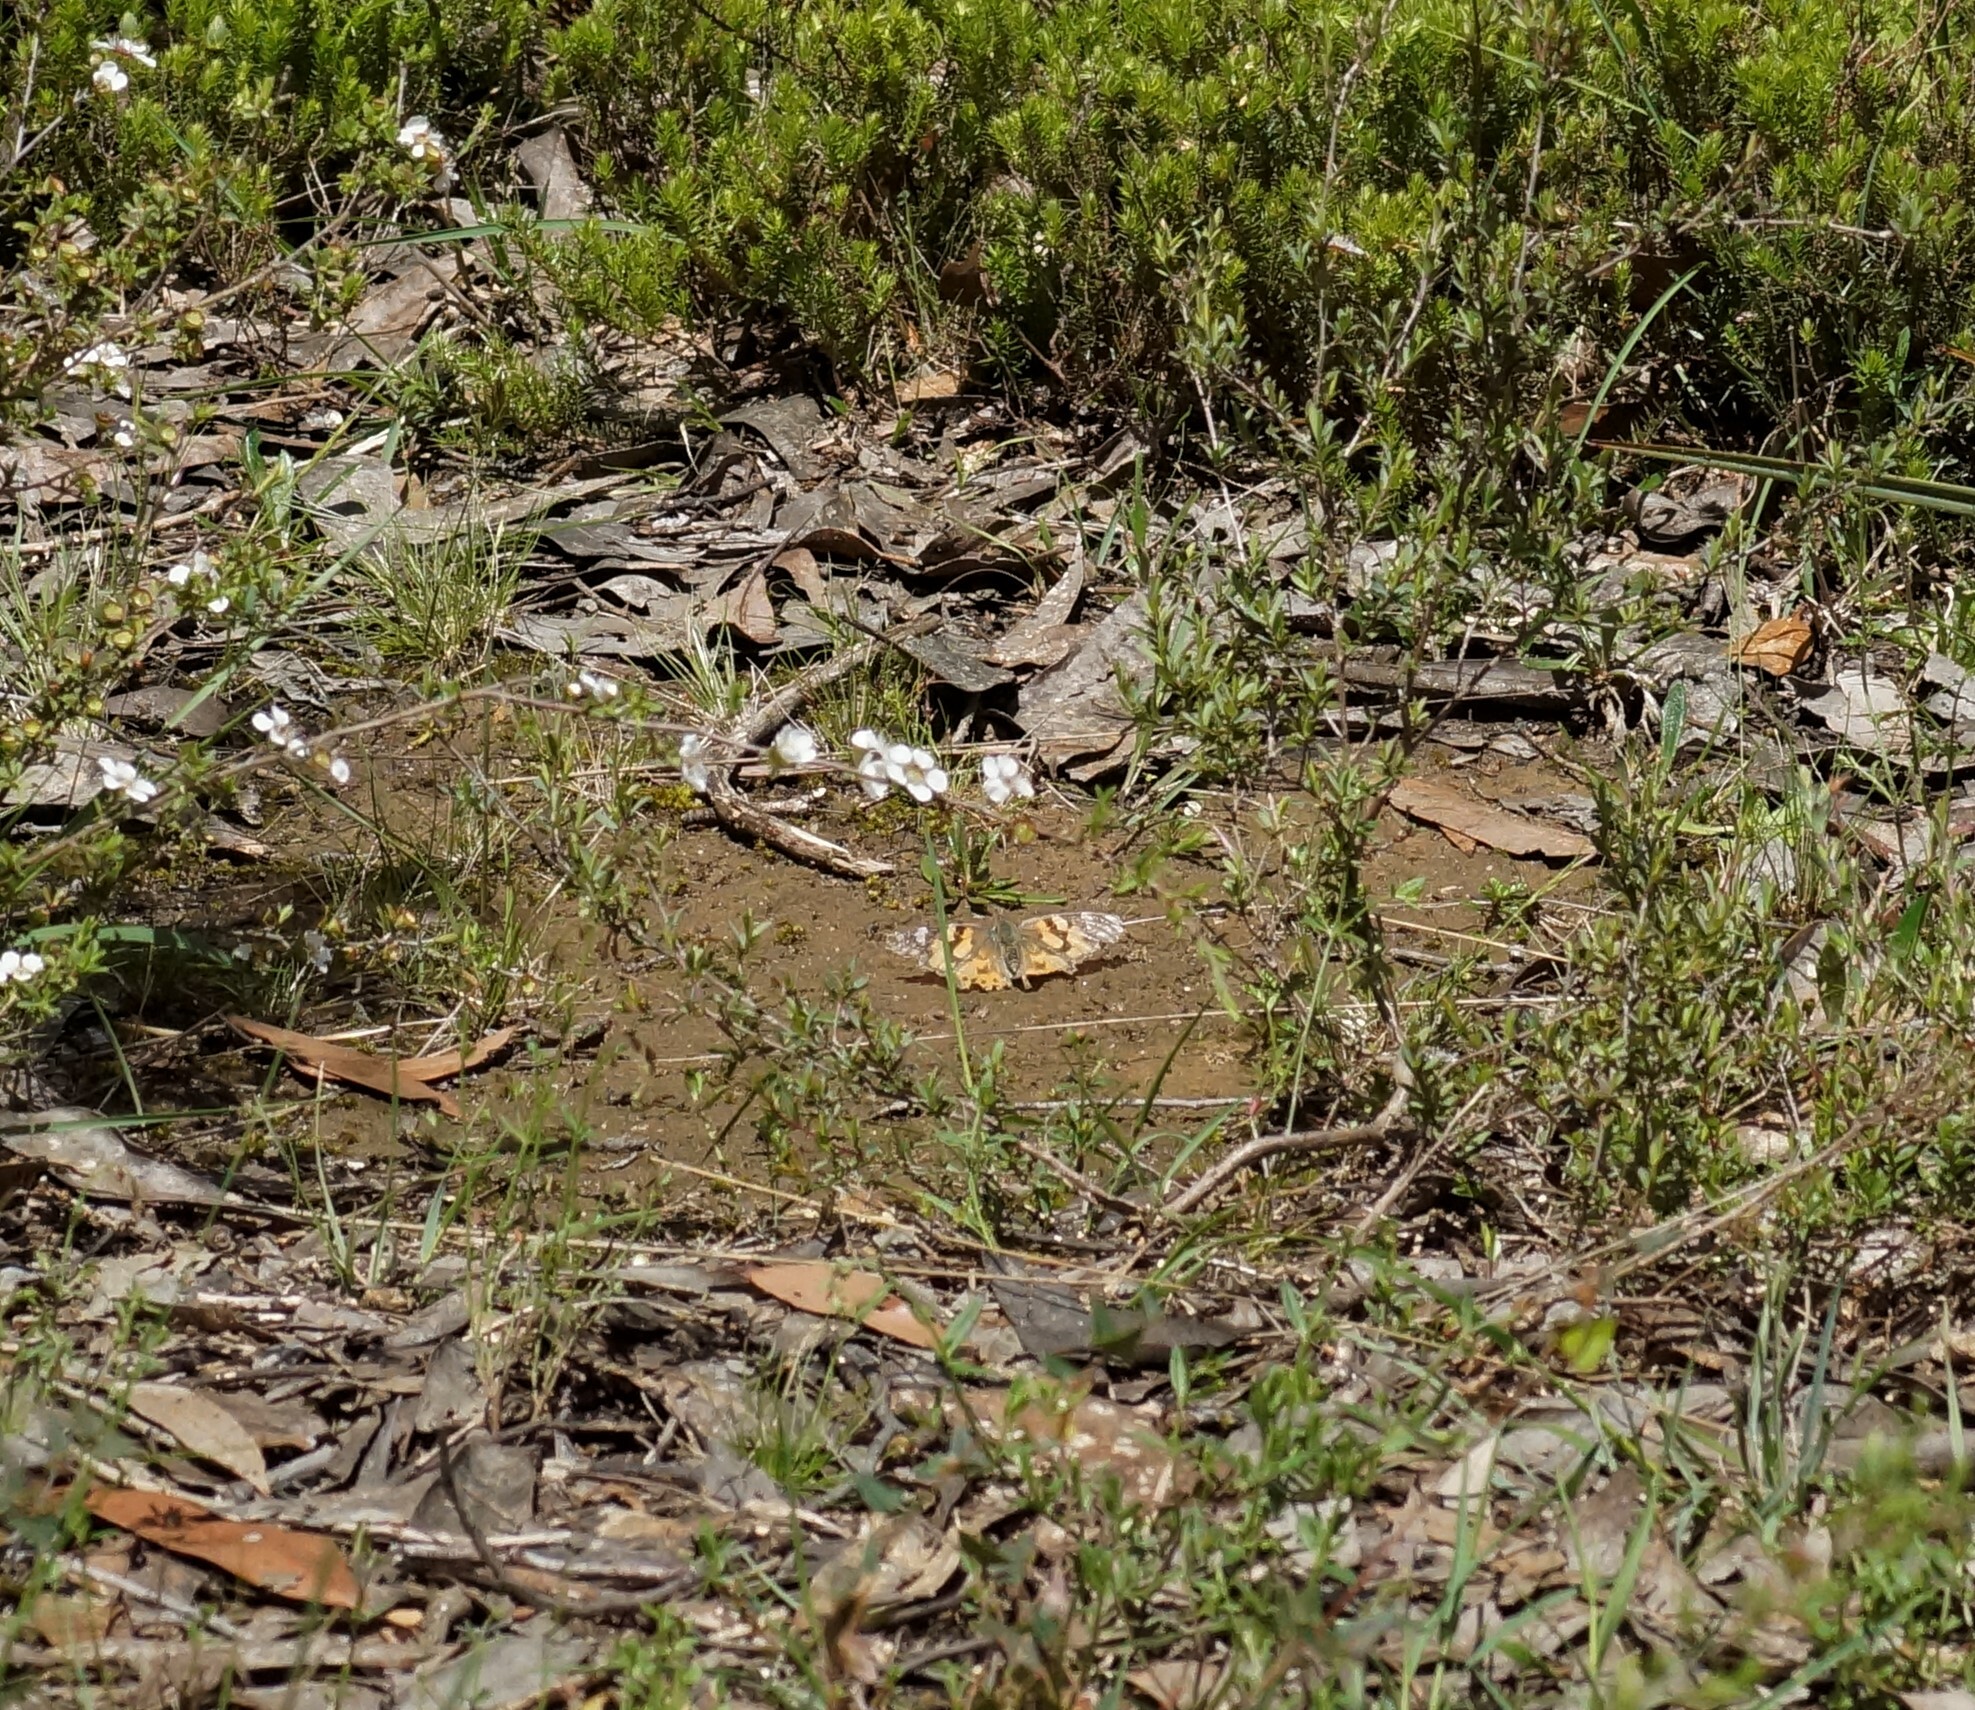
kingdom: Animalia
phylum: Arthropoda
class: Insecta
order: Lepidoptera
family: Nymphalidae
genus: Vanessa
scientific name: Vanessa kershawi
